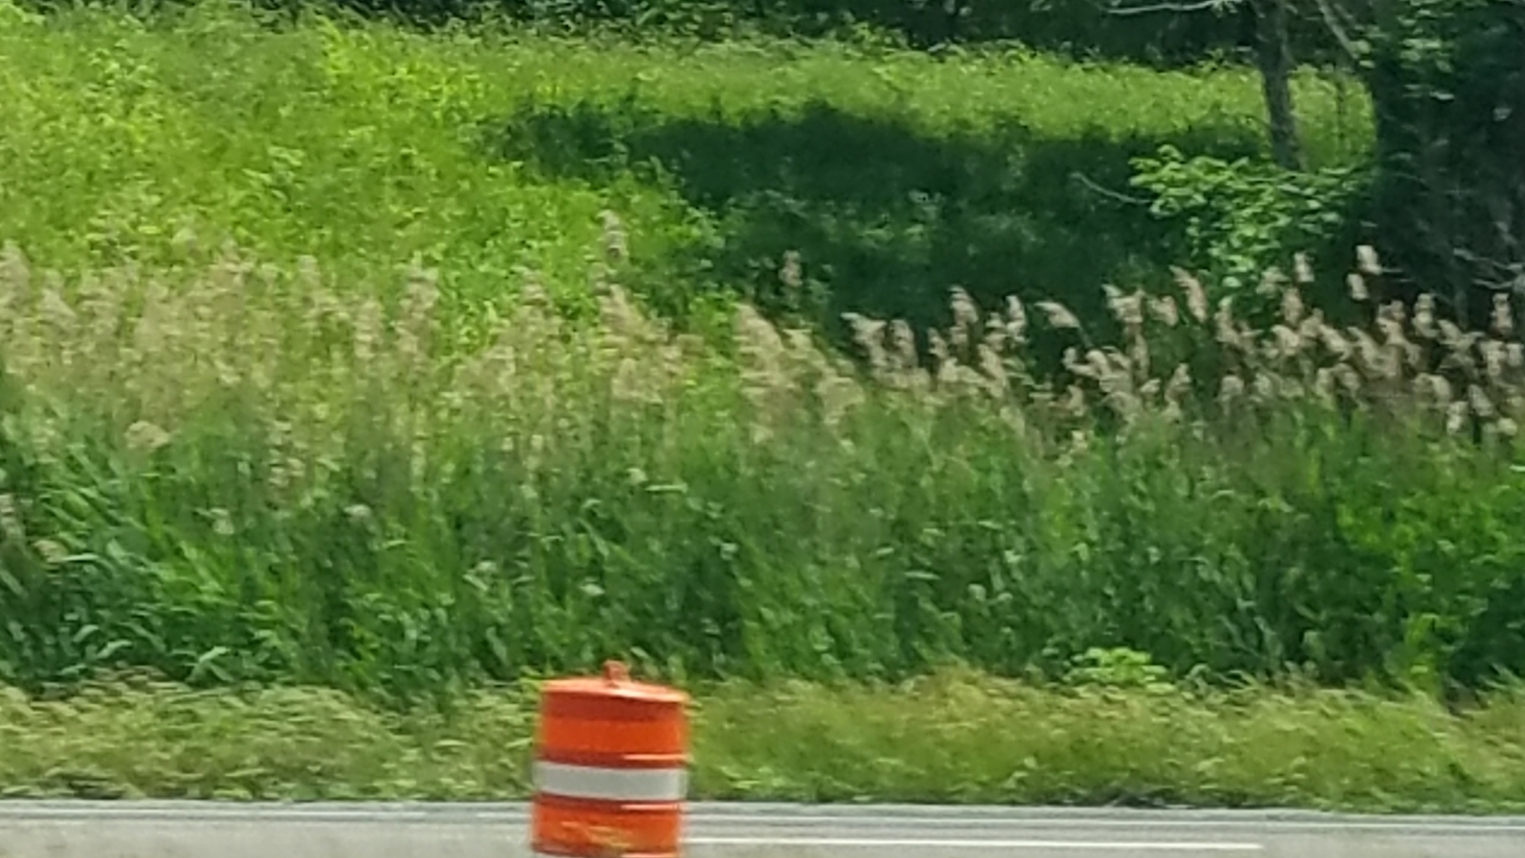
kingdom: Plantae
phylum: Tracheophyta
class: Liliopsida
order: Poales
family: Poaceae
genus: Phragmites
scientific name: Phragmites australis
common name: Common reed
